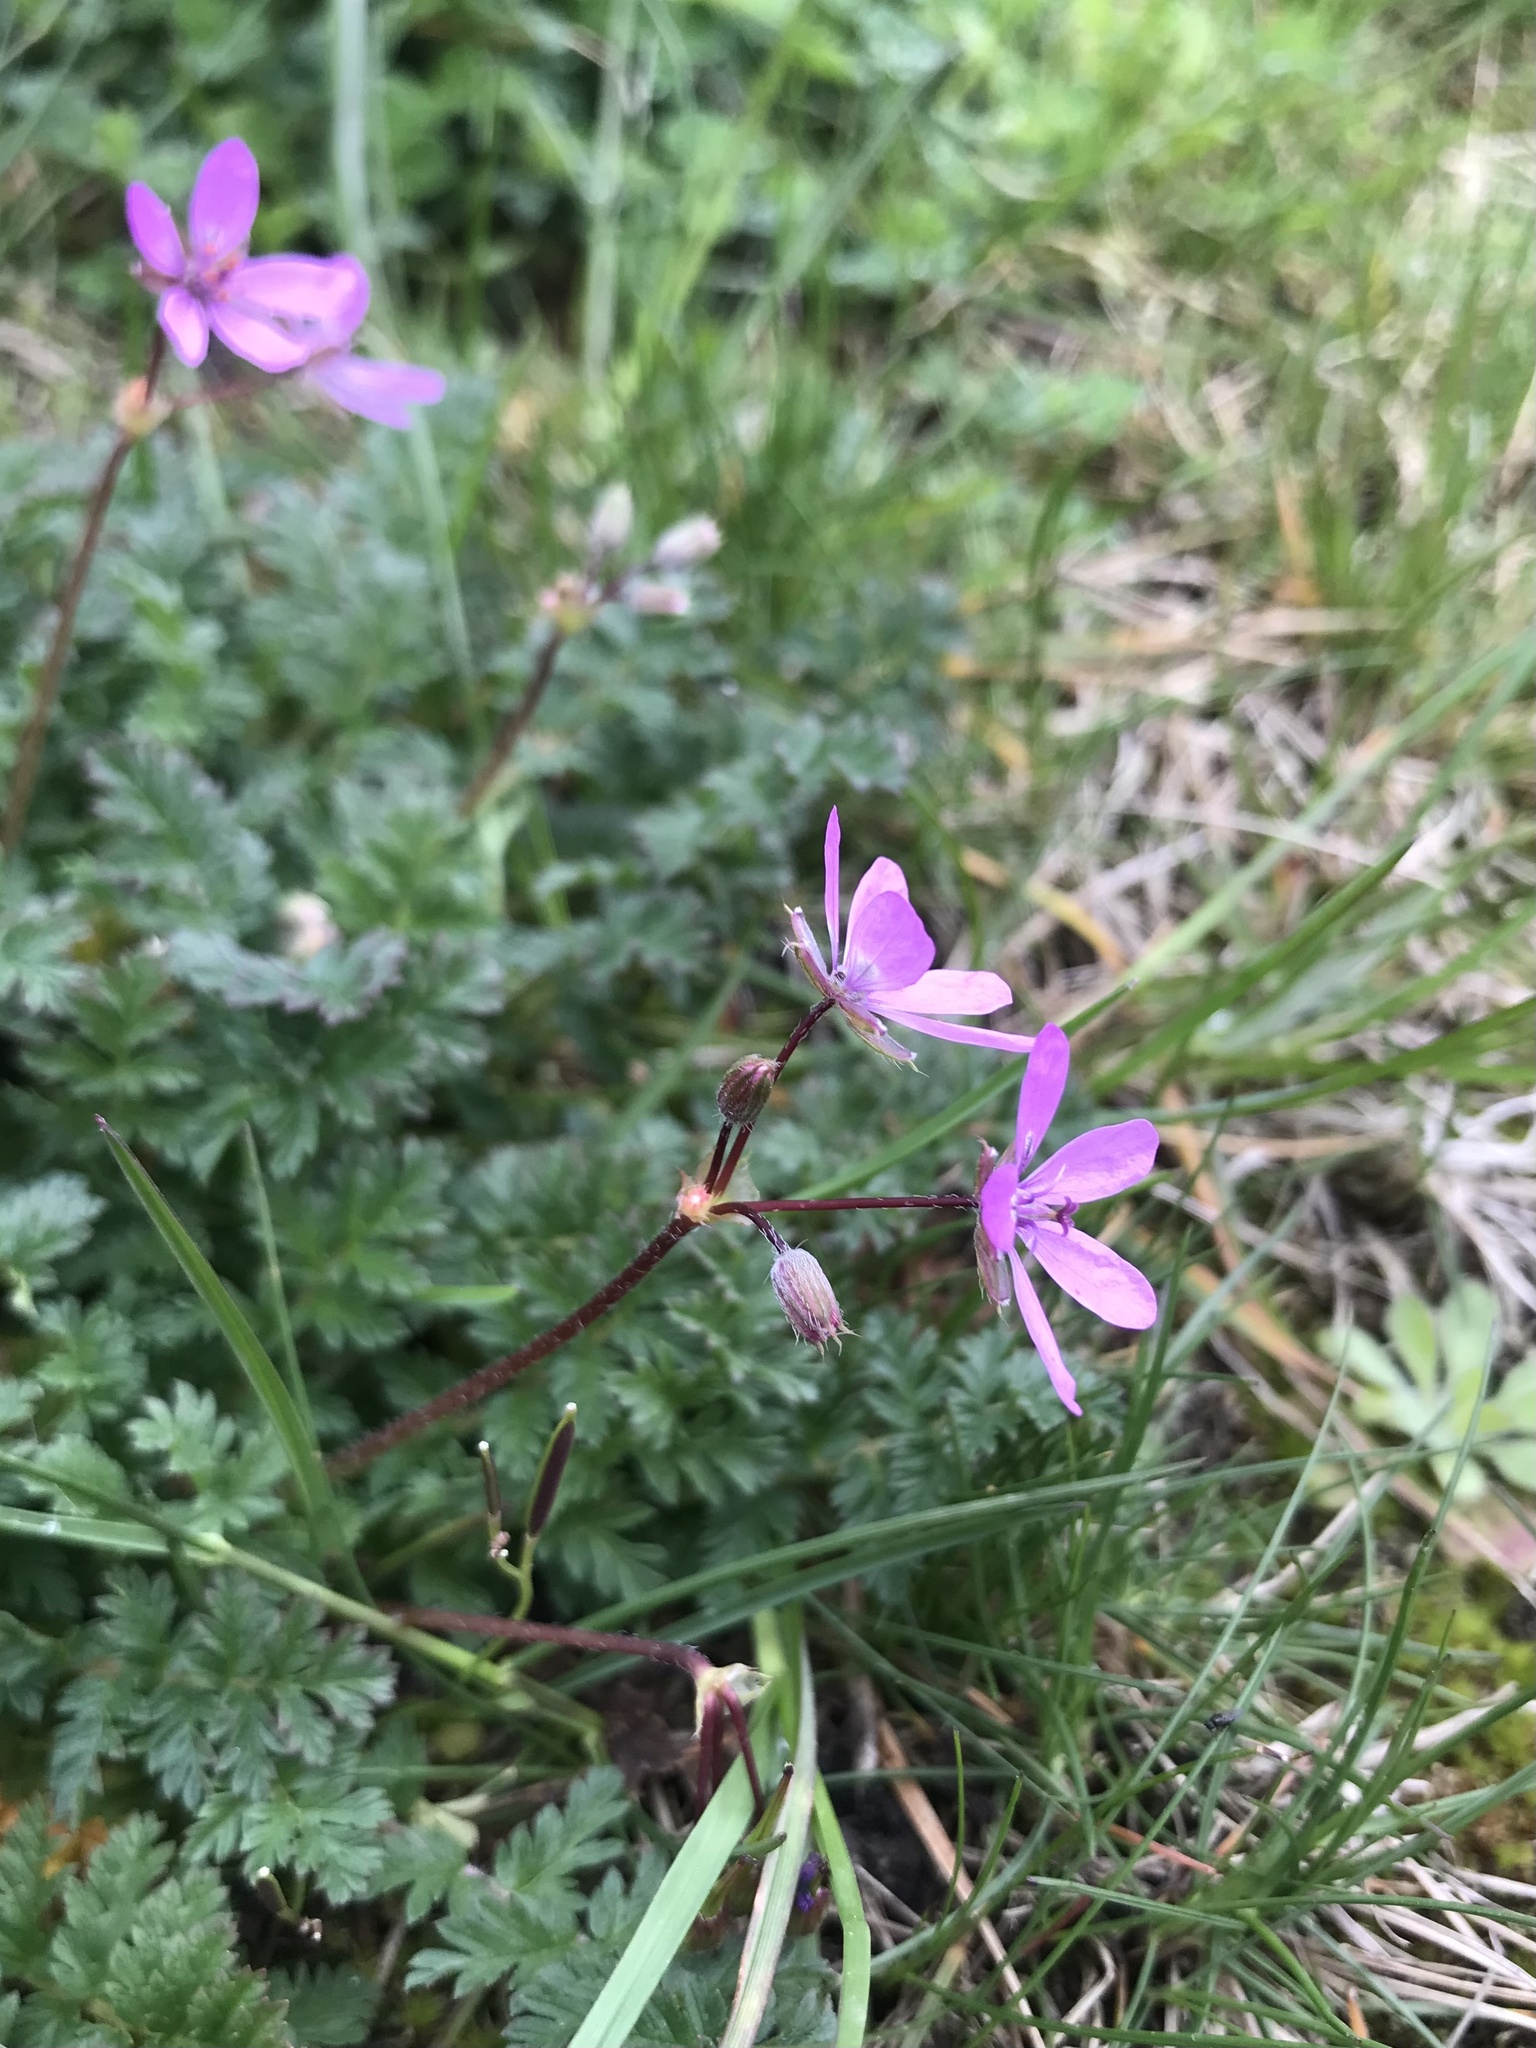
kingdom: Plantae
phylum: Tracheophyta
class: Magnoliopsida
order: Geraniales
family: Geraniaceae
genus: Erodium
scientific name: Erodium cicutarium
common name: Common stork's-bill
